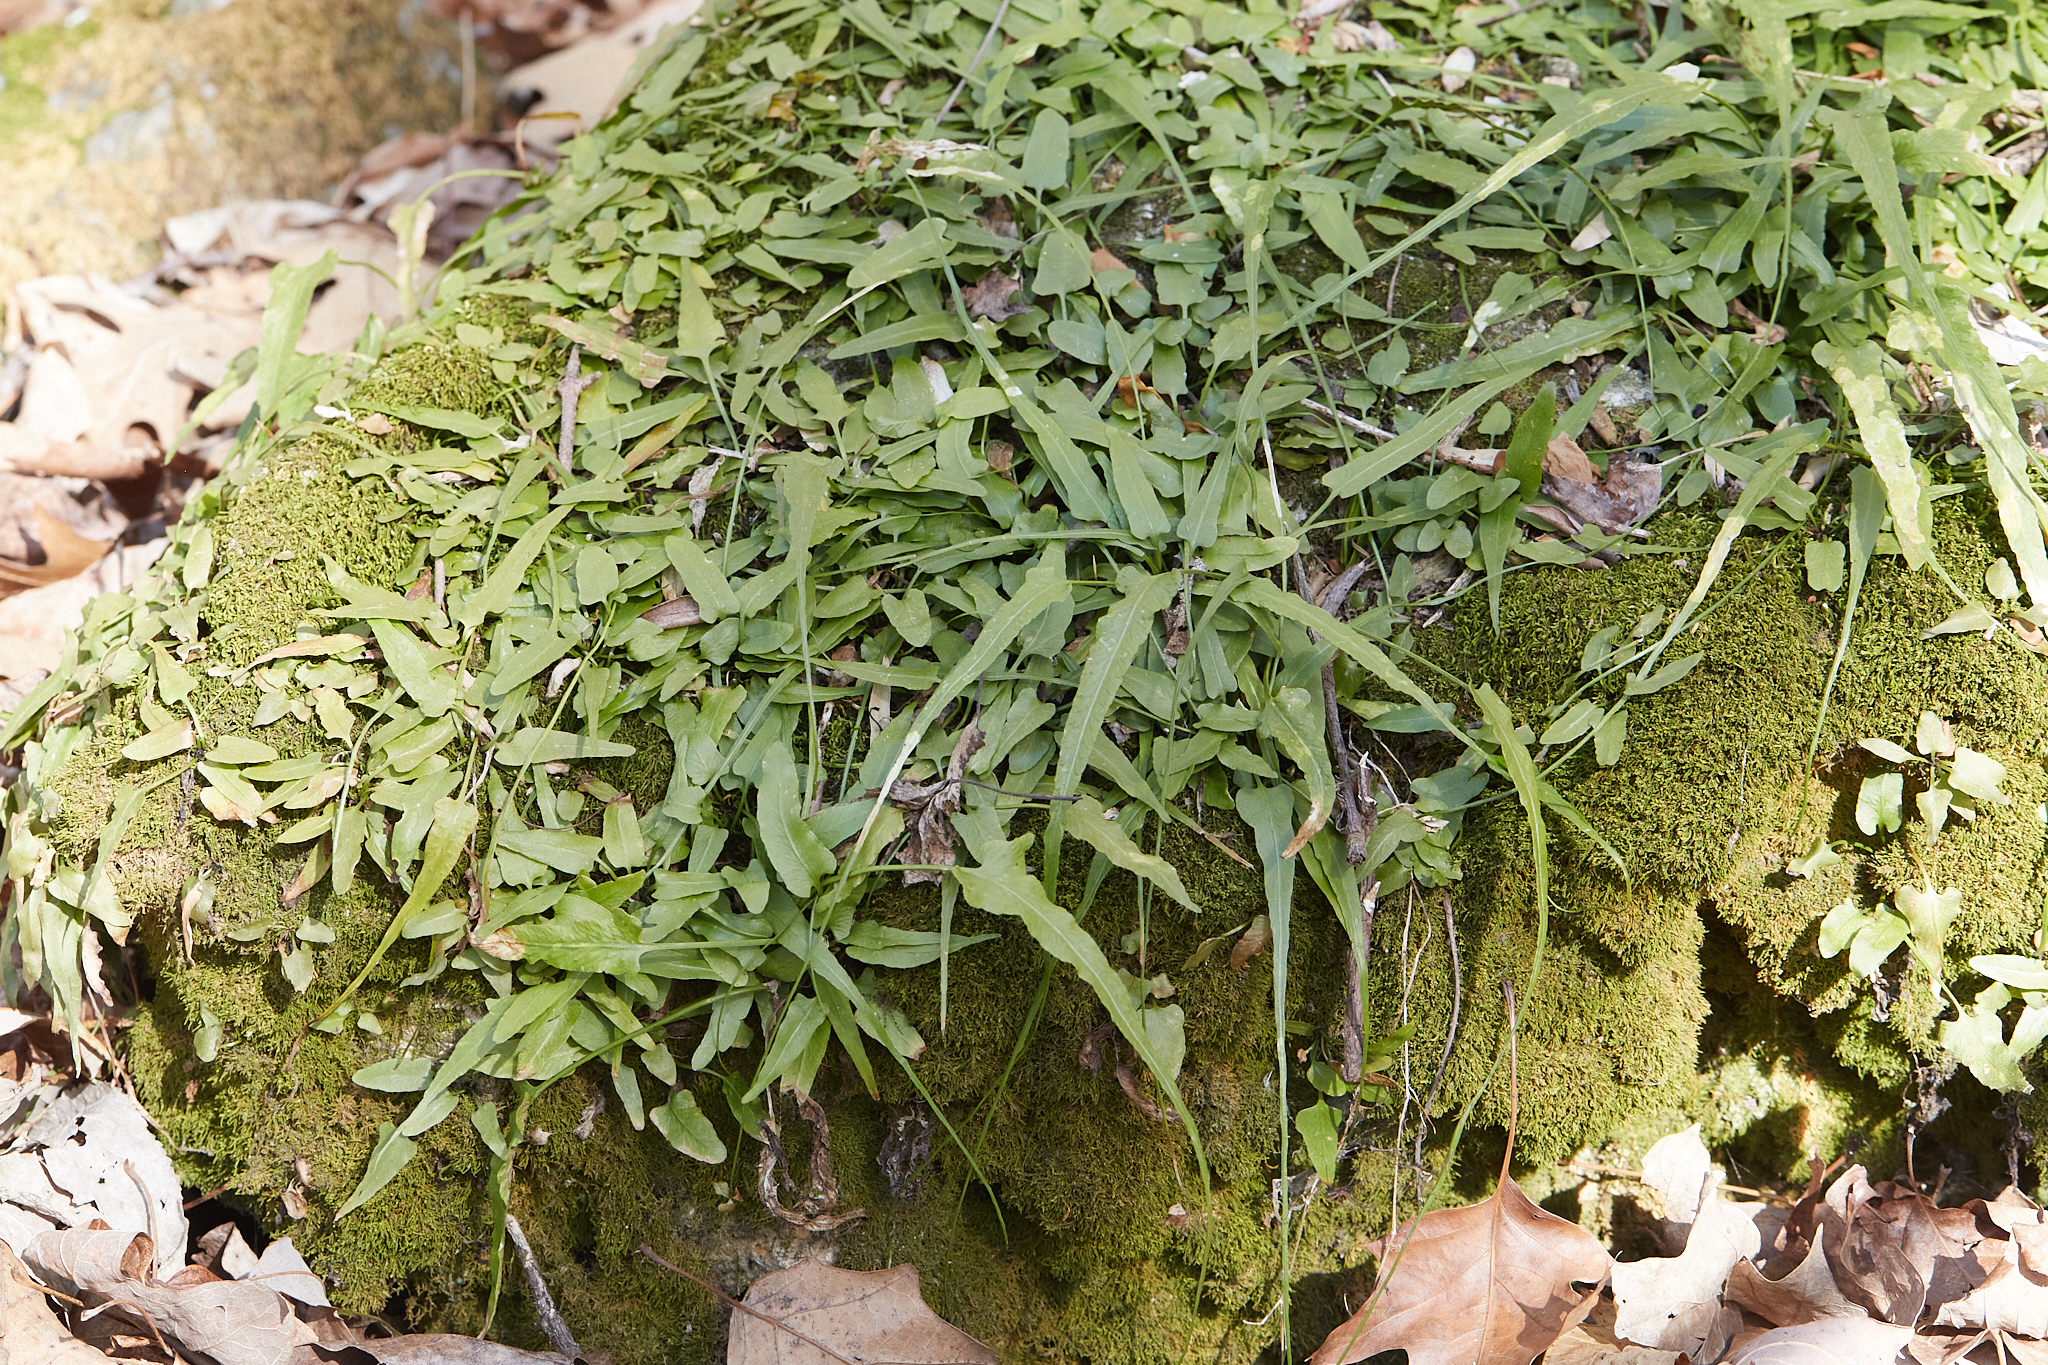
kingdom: Plantae
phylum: Tracheophyta
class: Polypodiopsida
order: Polypodiales
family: Aspleniaceae
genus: Asplenium
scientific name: Asplenium rhizophyllum
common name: Walking fern
